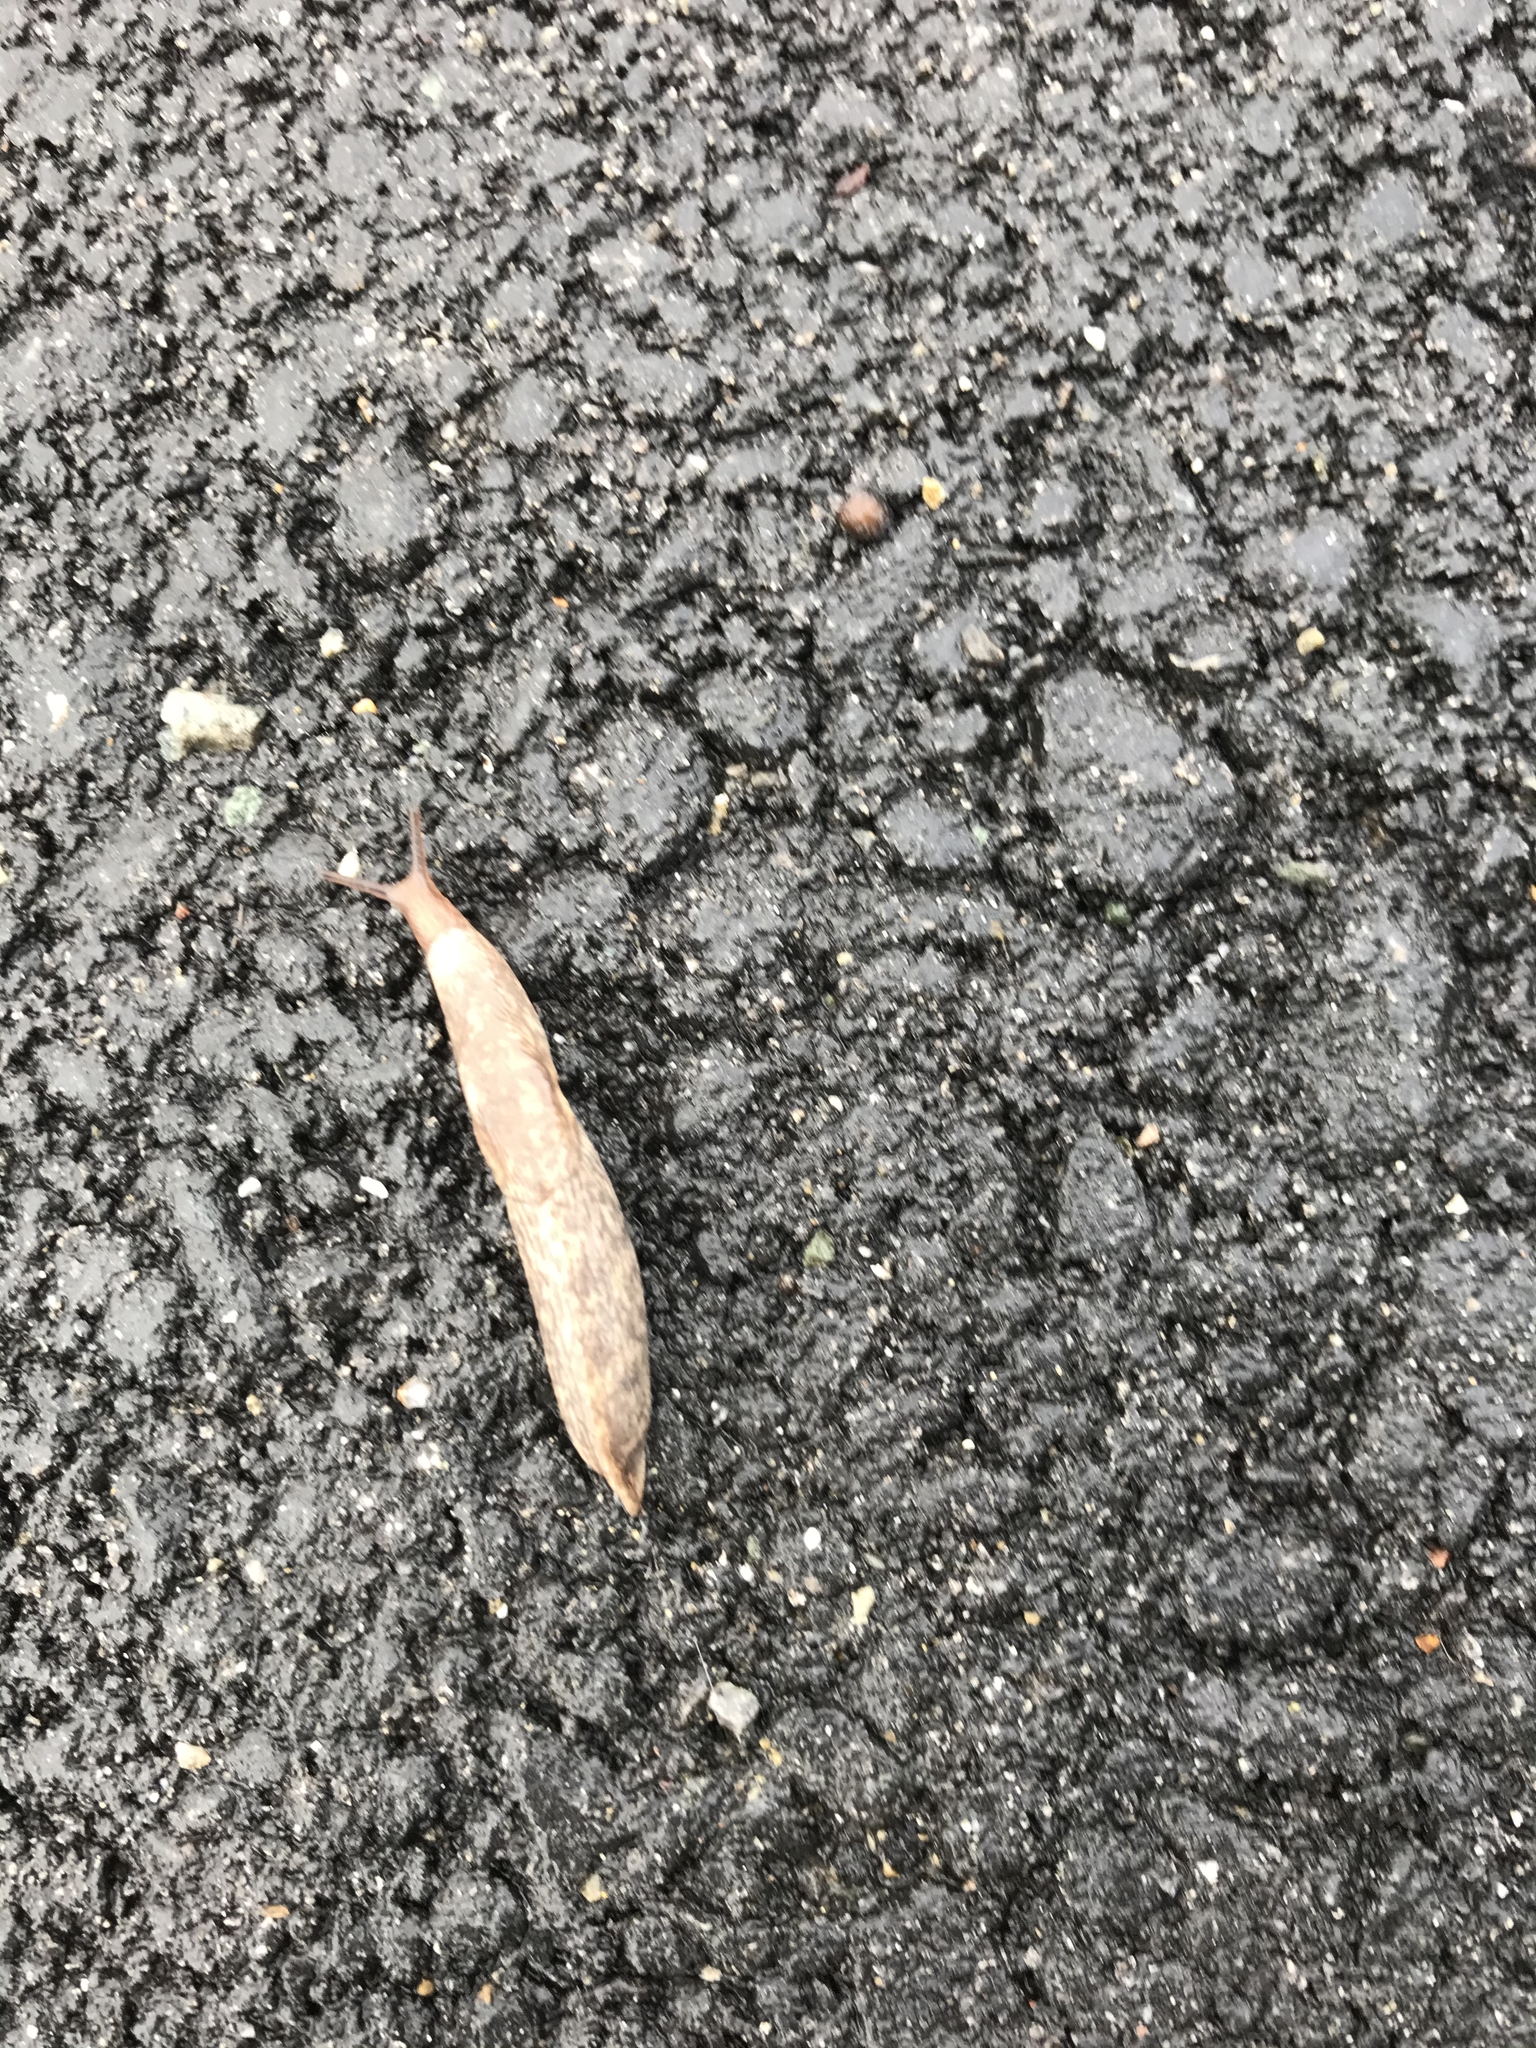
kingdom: Animalia
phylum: Mollusca
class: Gastropoda
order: Stylommatophora
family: Agriolimacidae
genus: Deroceras
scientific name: Deroceras reticulatum
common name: Gray field slug
